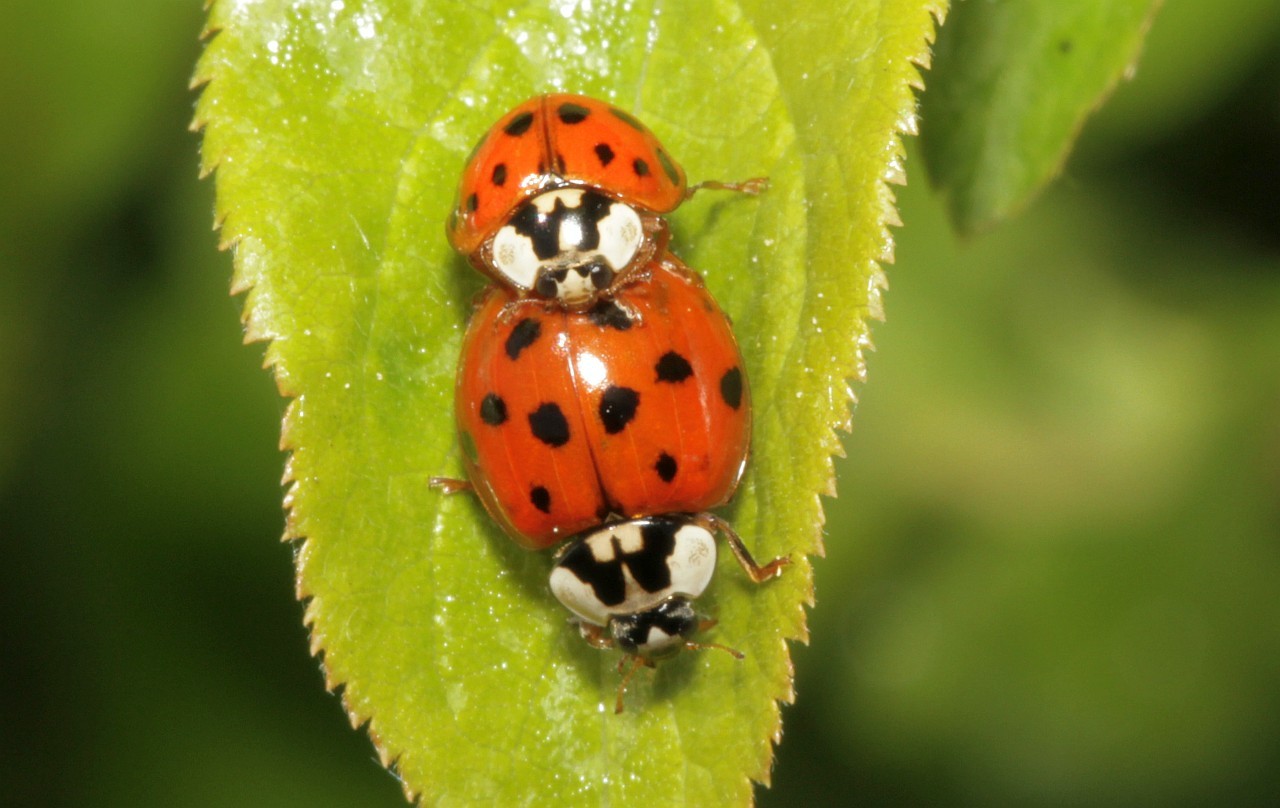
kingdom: Animalia
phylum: Arthropoda
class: Insecta
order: Coleoptera
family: Coccinellidae
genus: Harmonia
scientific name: Harmonia axyridis
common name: Harlequin ladybird
